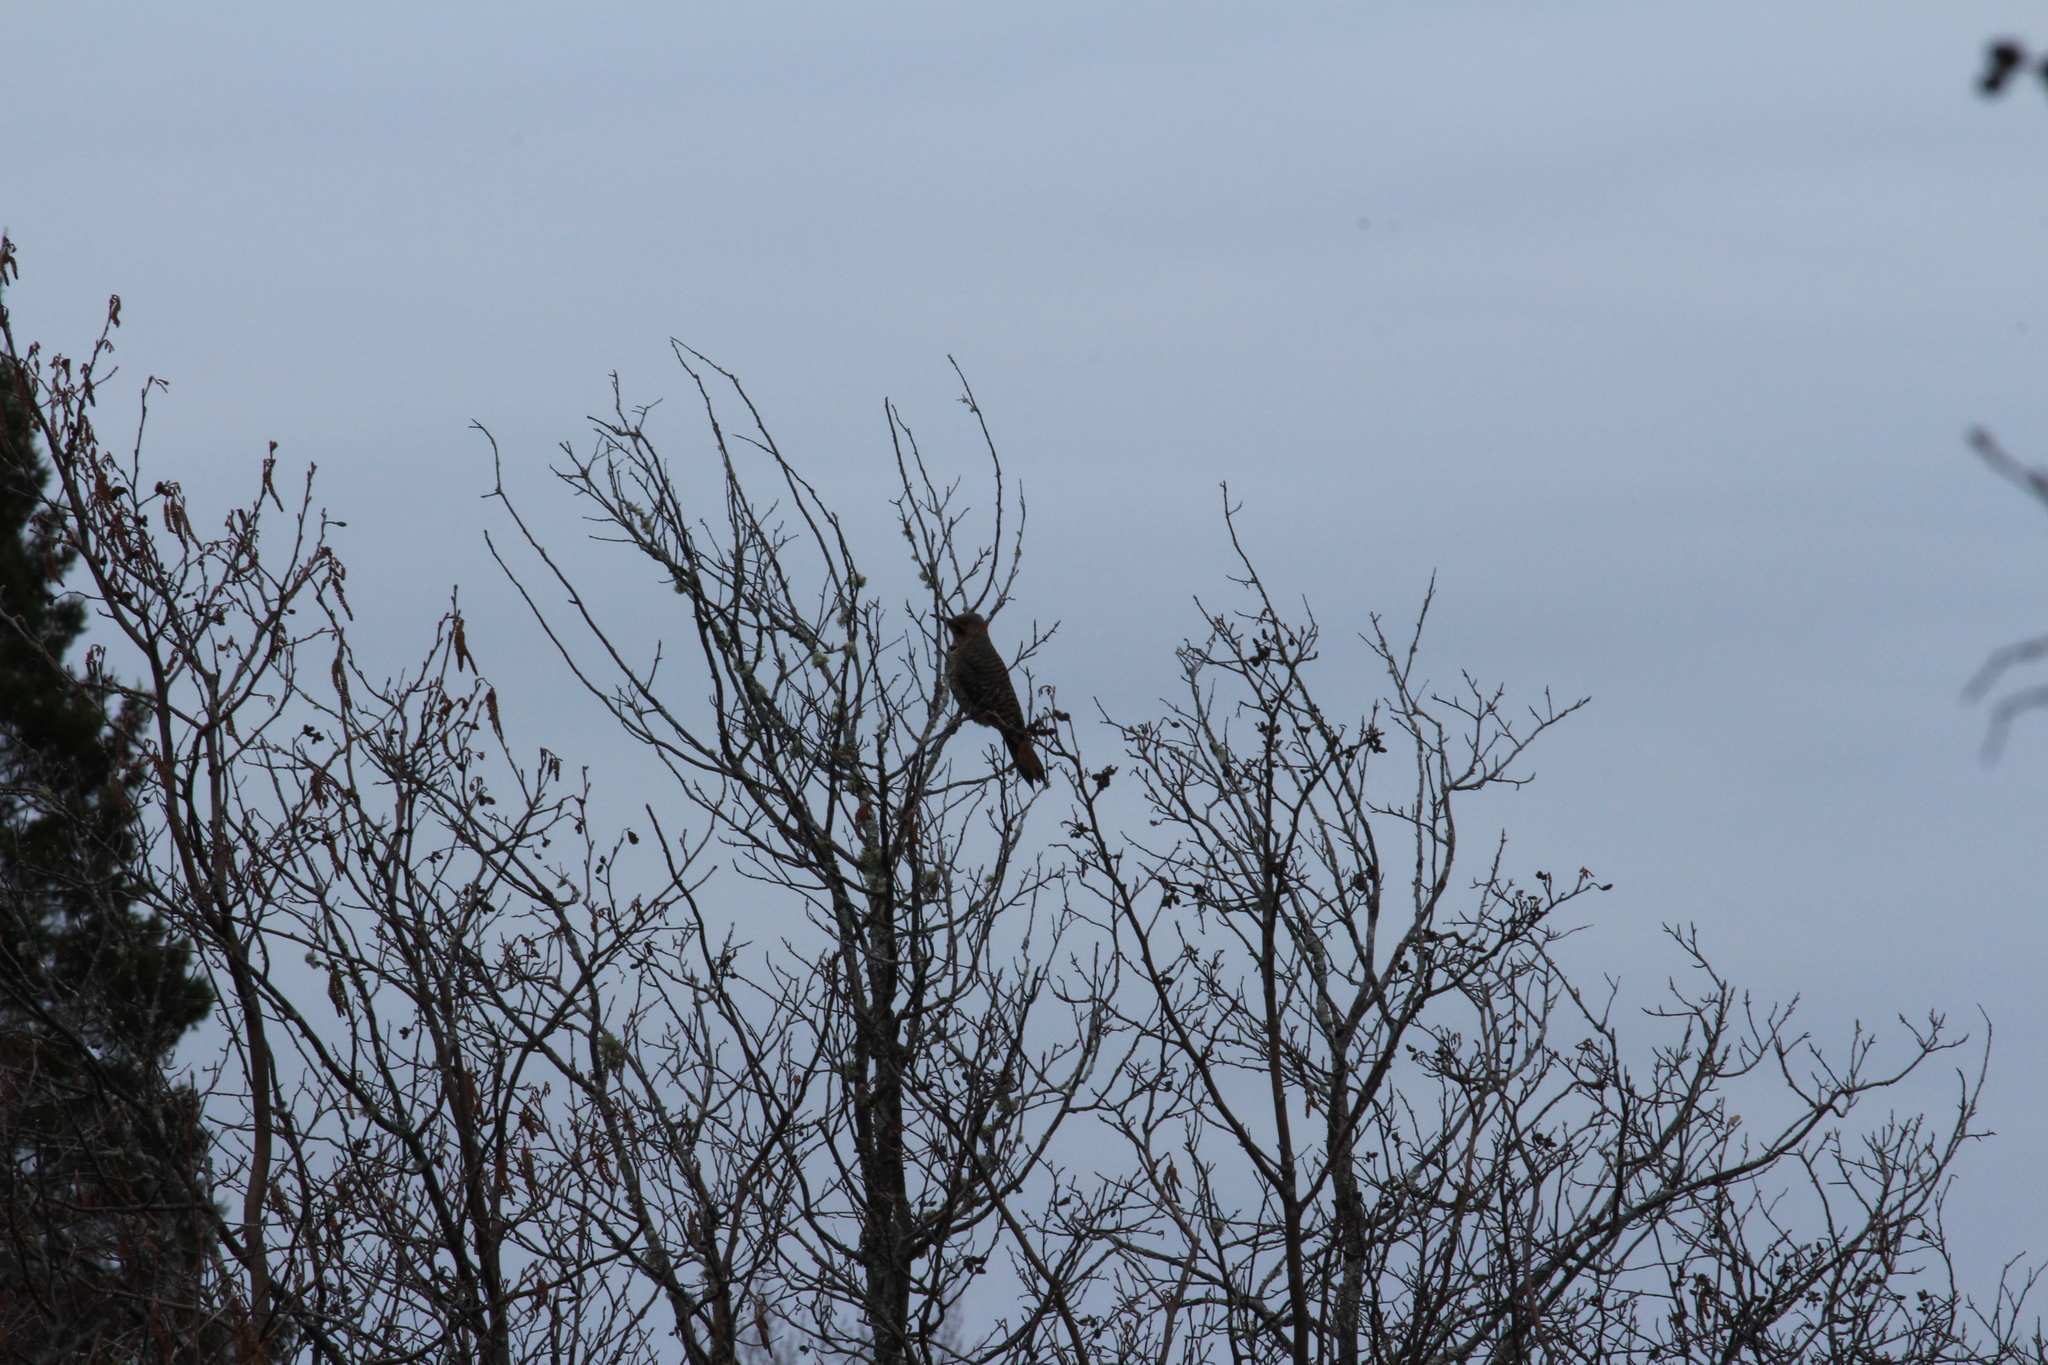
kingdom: Animalia
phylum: Chordata
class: Aves
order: Piciformes
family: Picidae
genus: Colaptes
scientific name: Colaptes auratus
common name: Northern flicker
